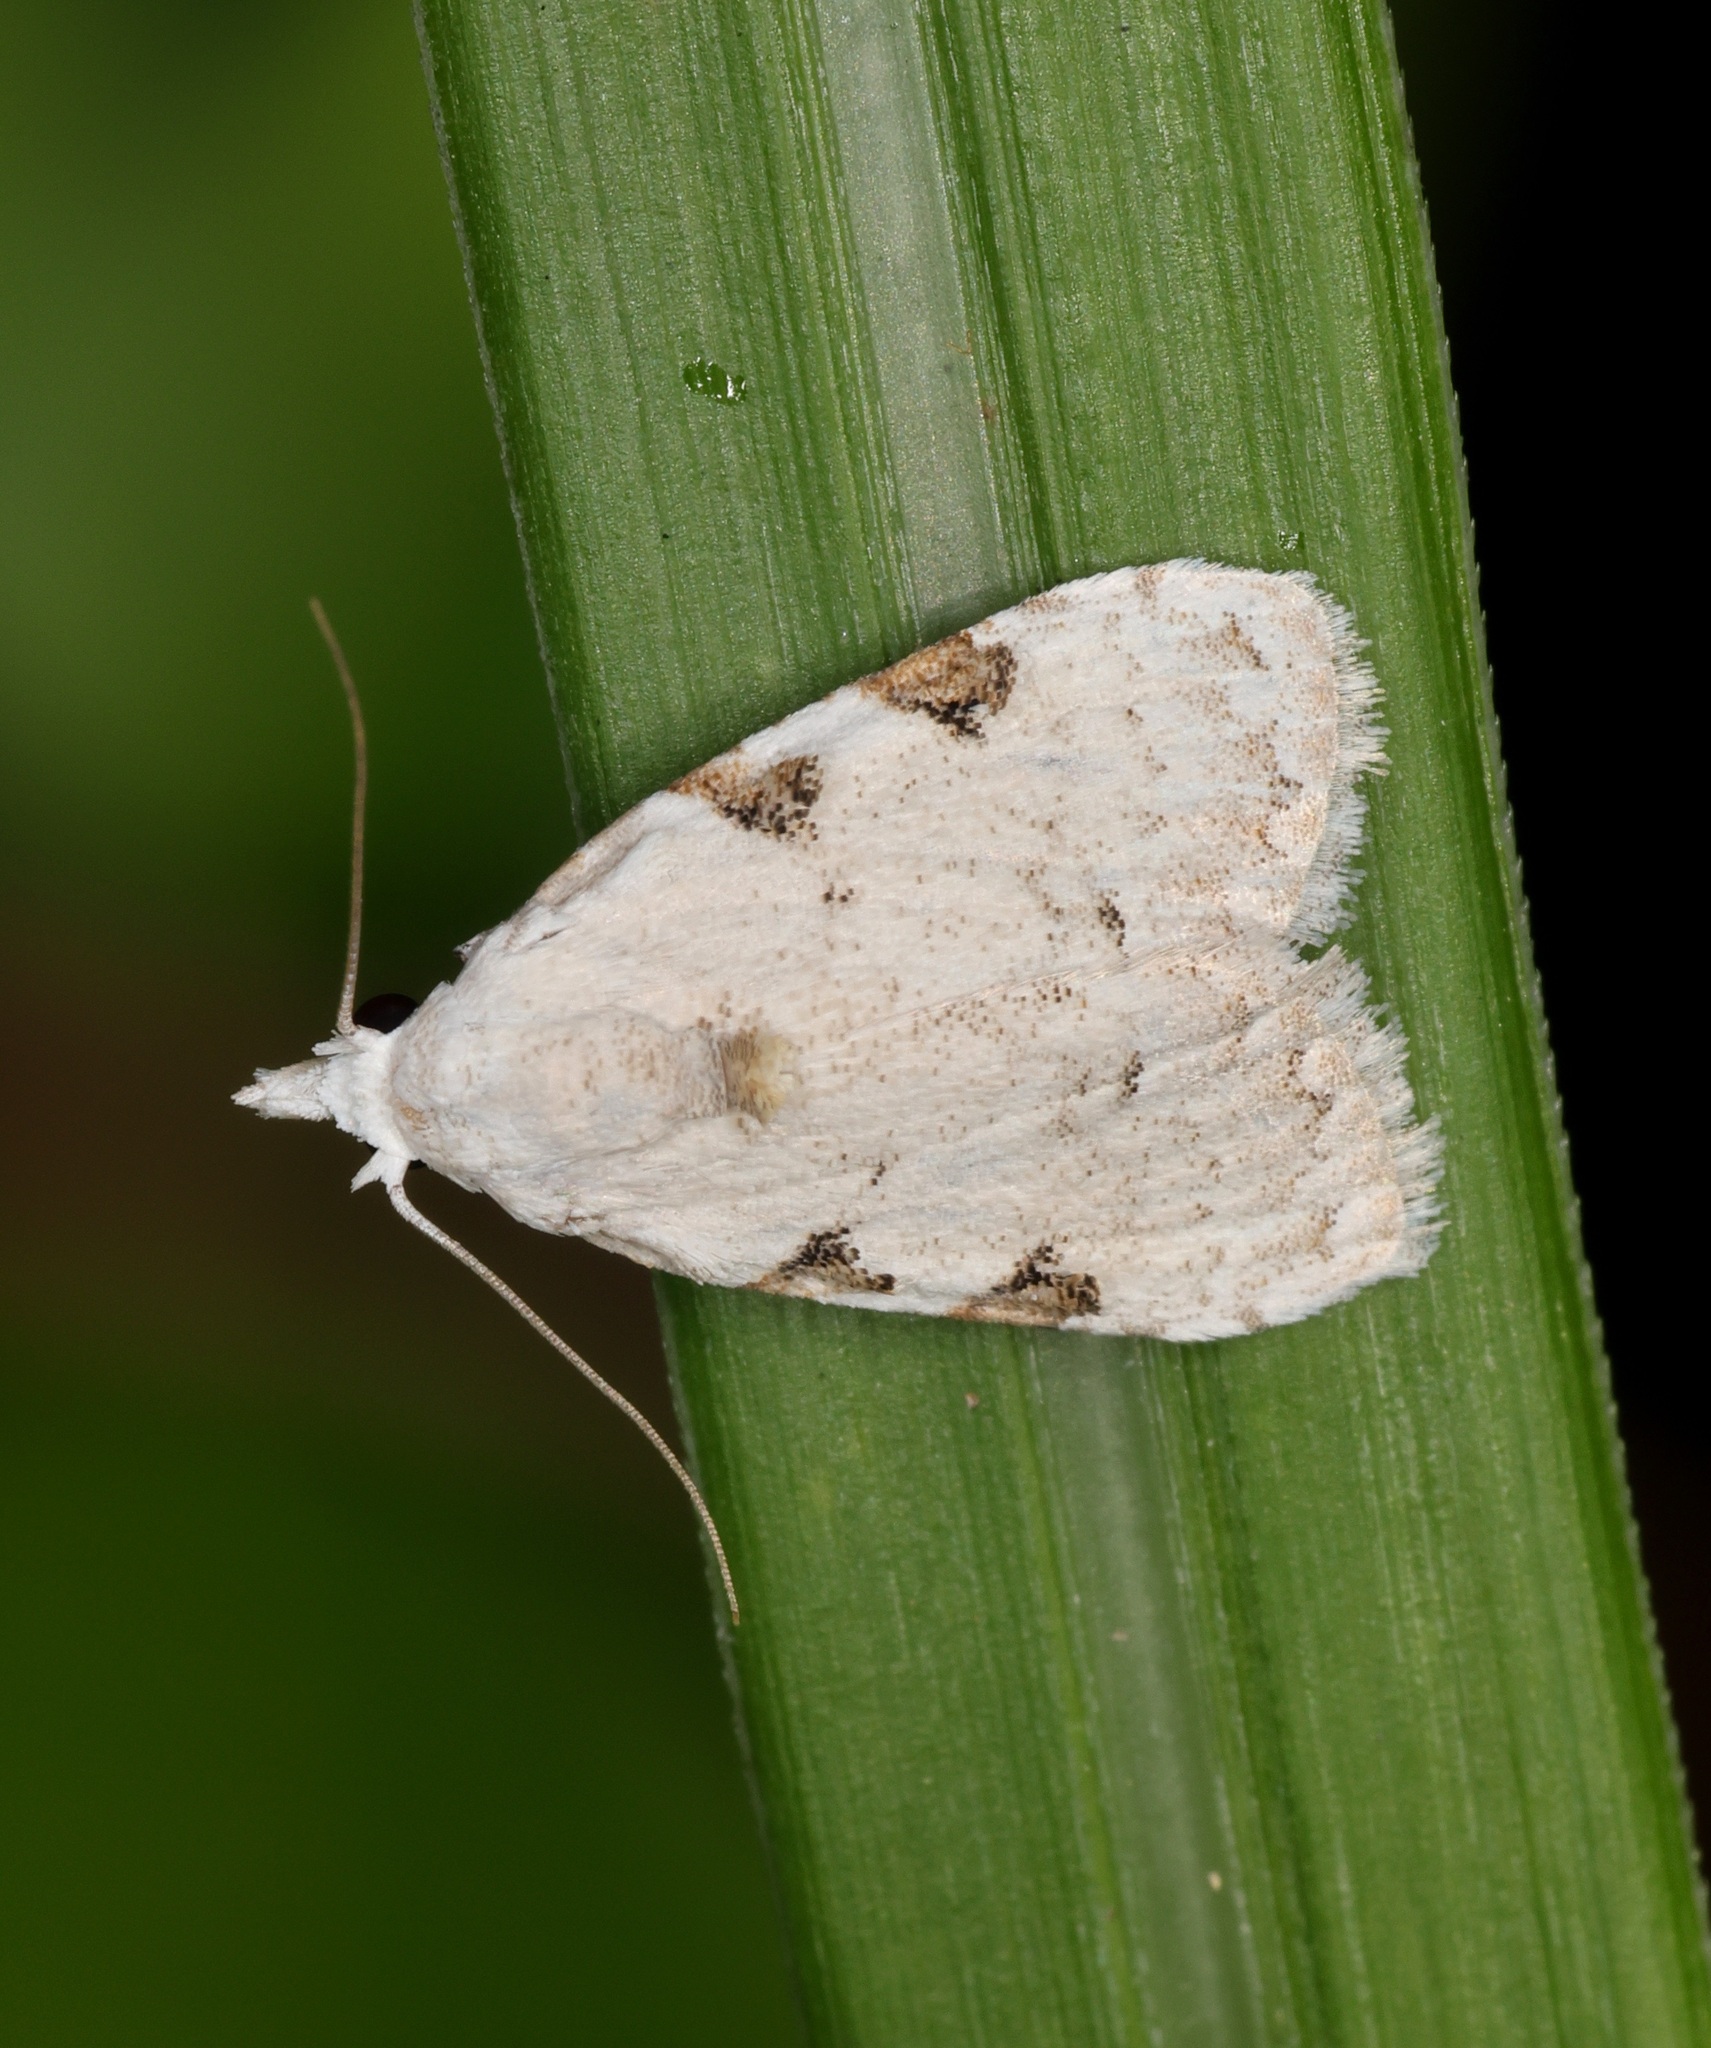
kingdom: Animalia
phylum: Arthropoda
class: Insecta
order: Lepidoptera
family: Nolidae
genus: Nola
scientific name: Nola pascua
